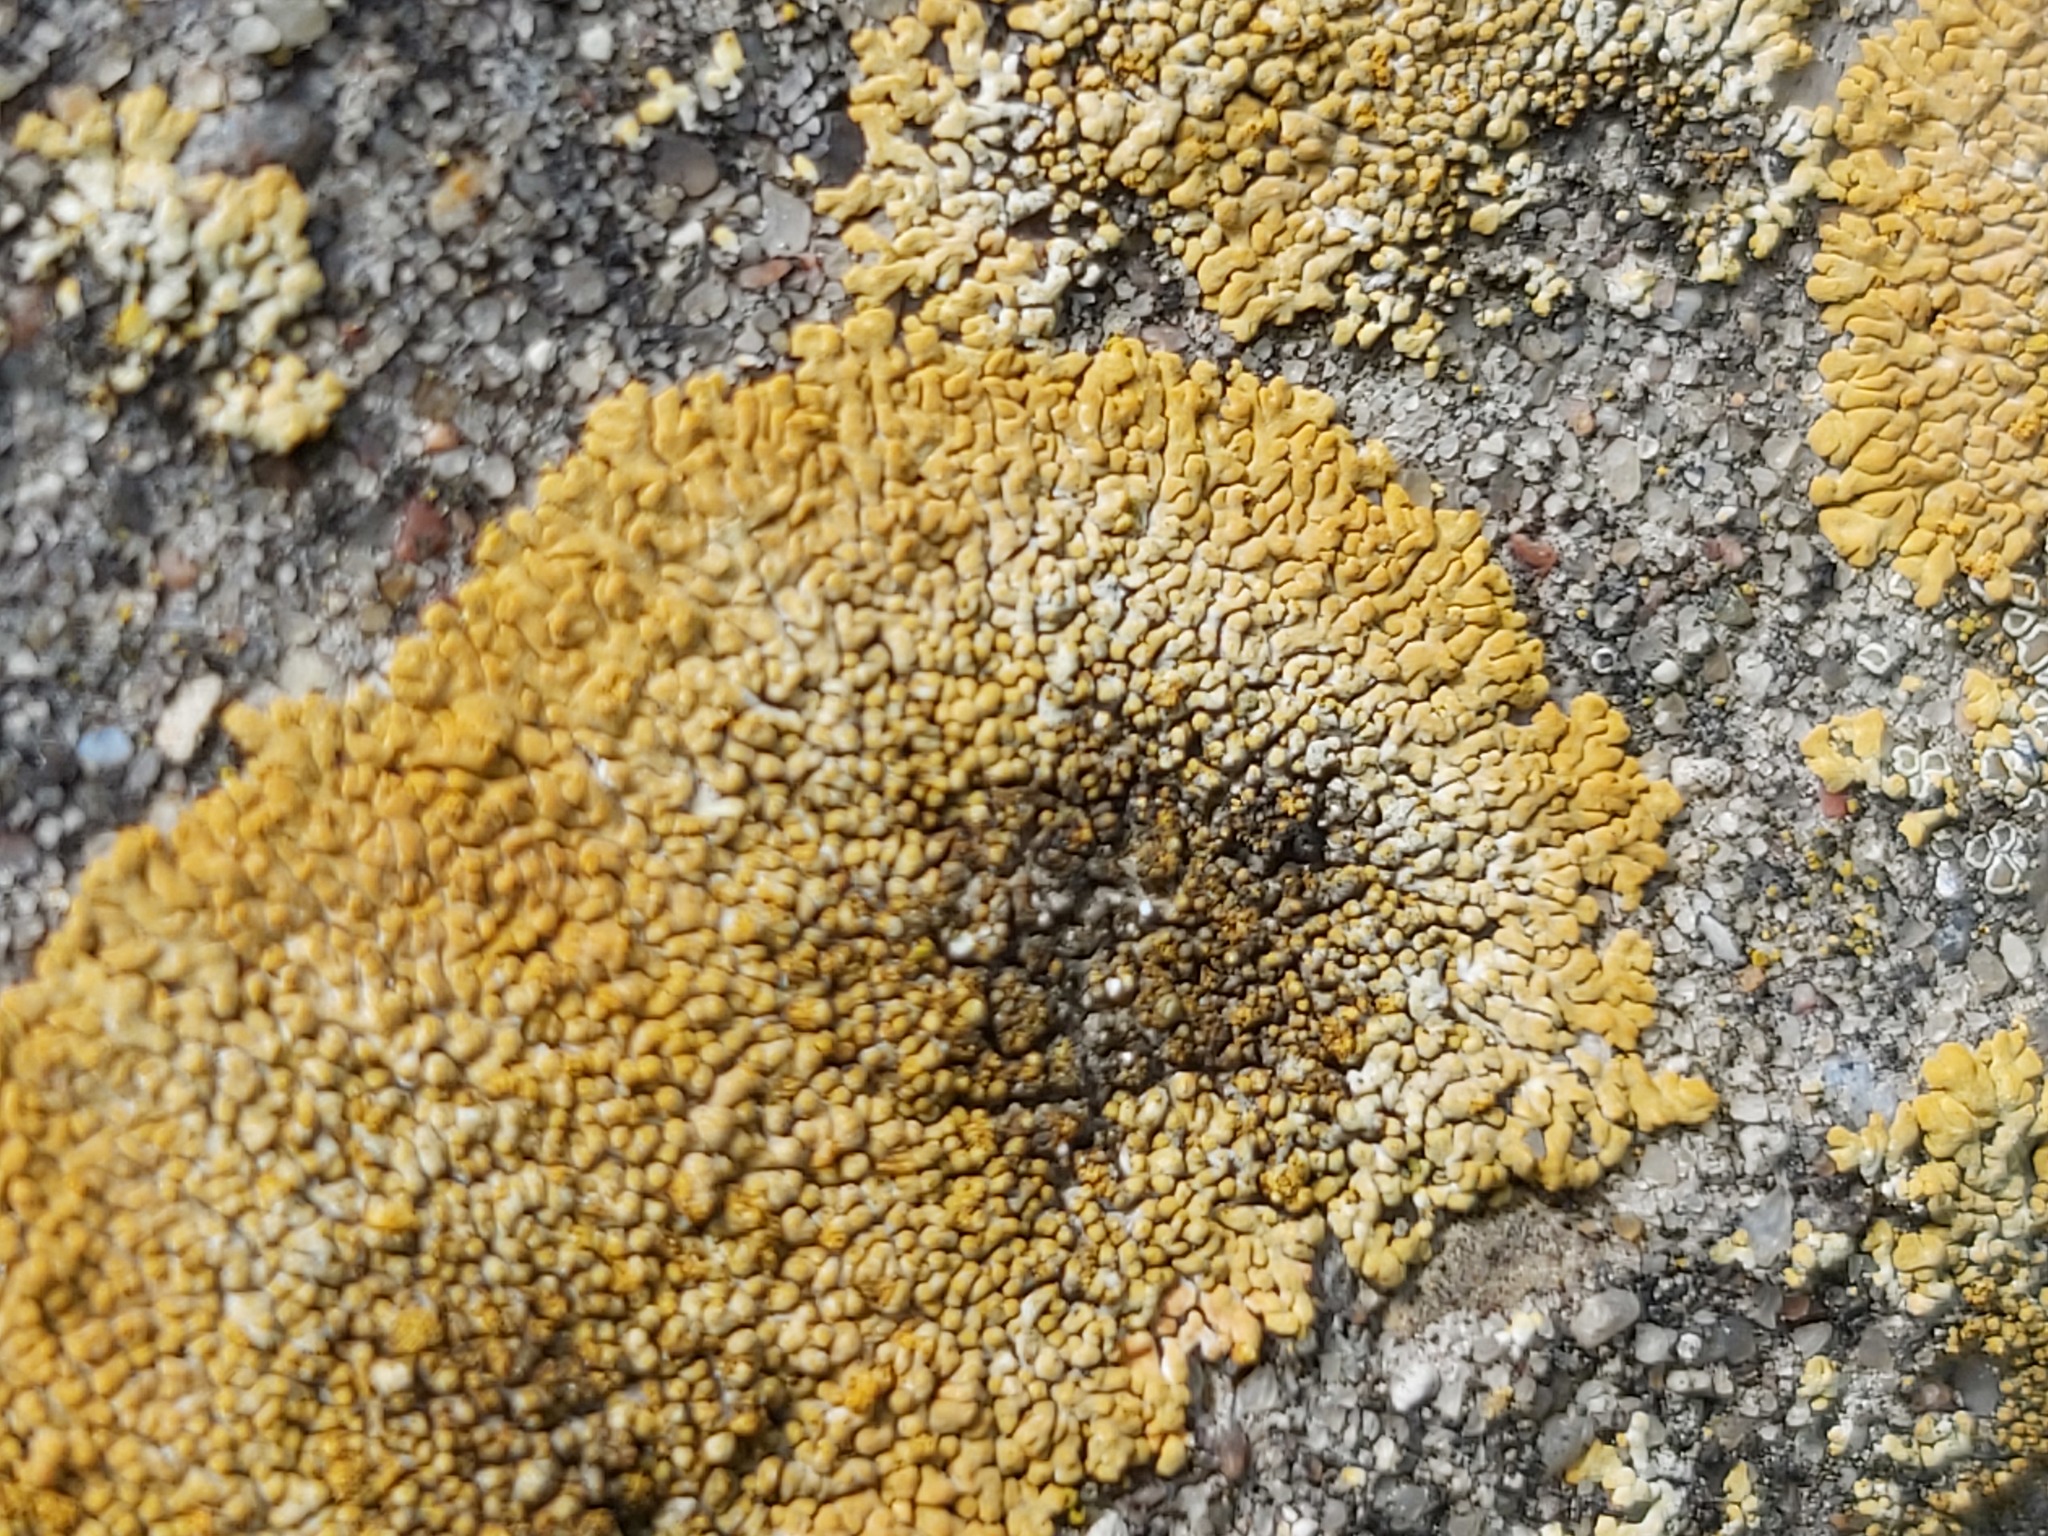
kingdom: Fungi
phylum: Ascomycota
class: Lecanoromycetes
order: Teloschistales
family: Teloschistaceae
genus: Calogaya
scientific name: Calogaya decipiens
